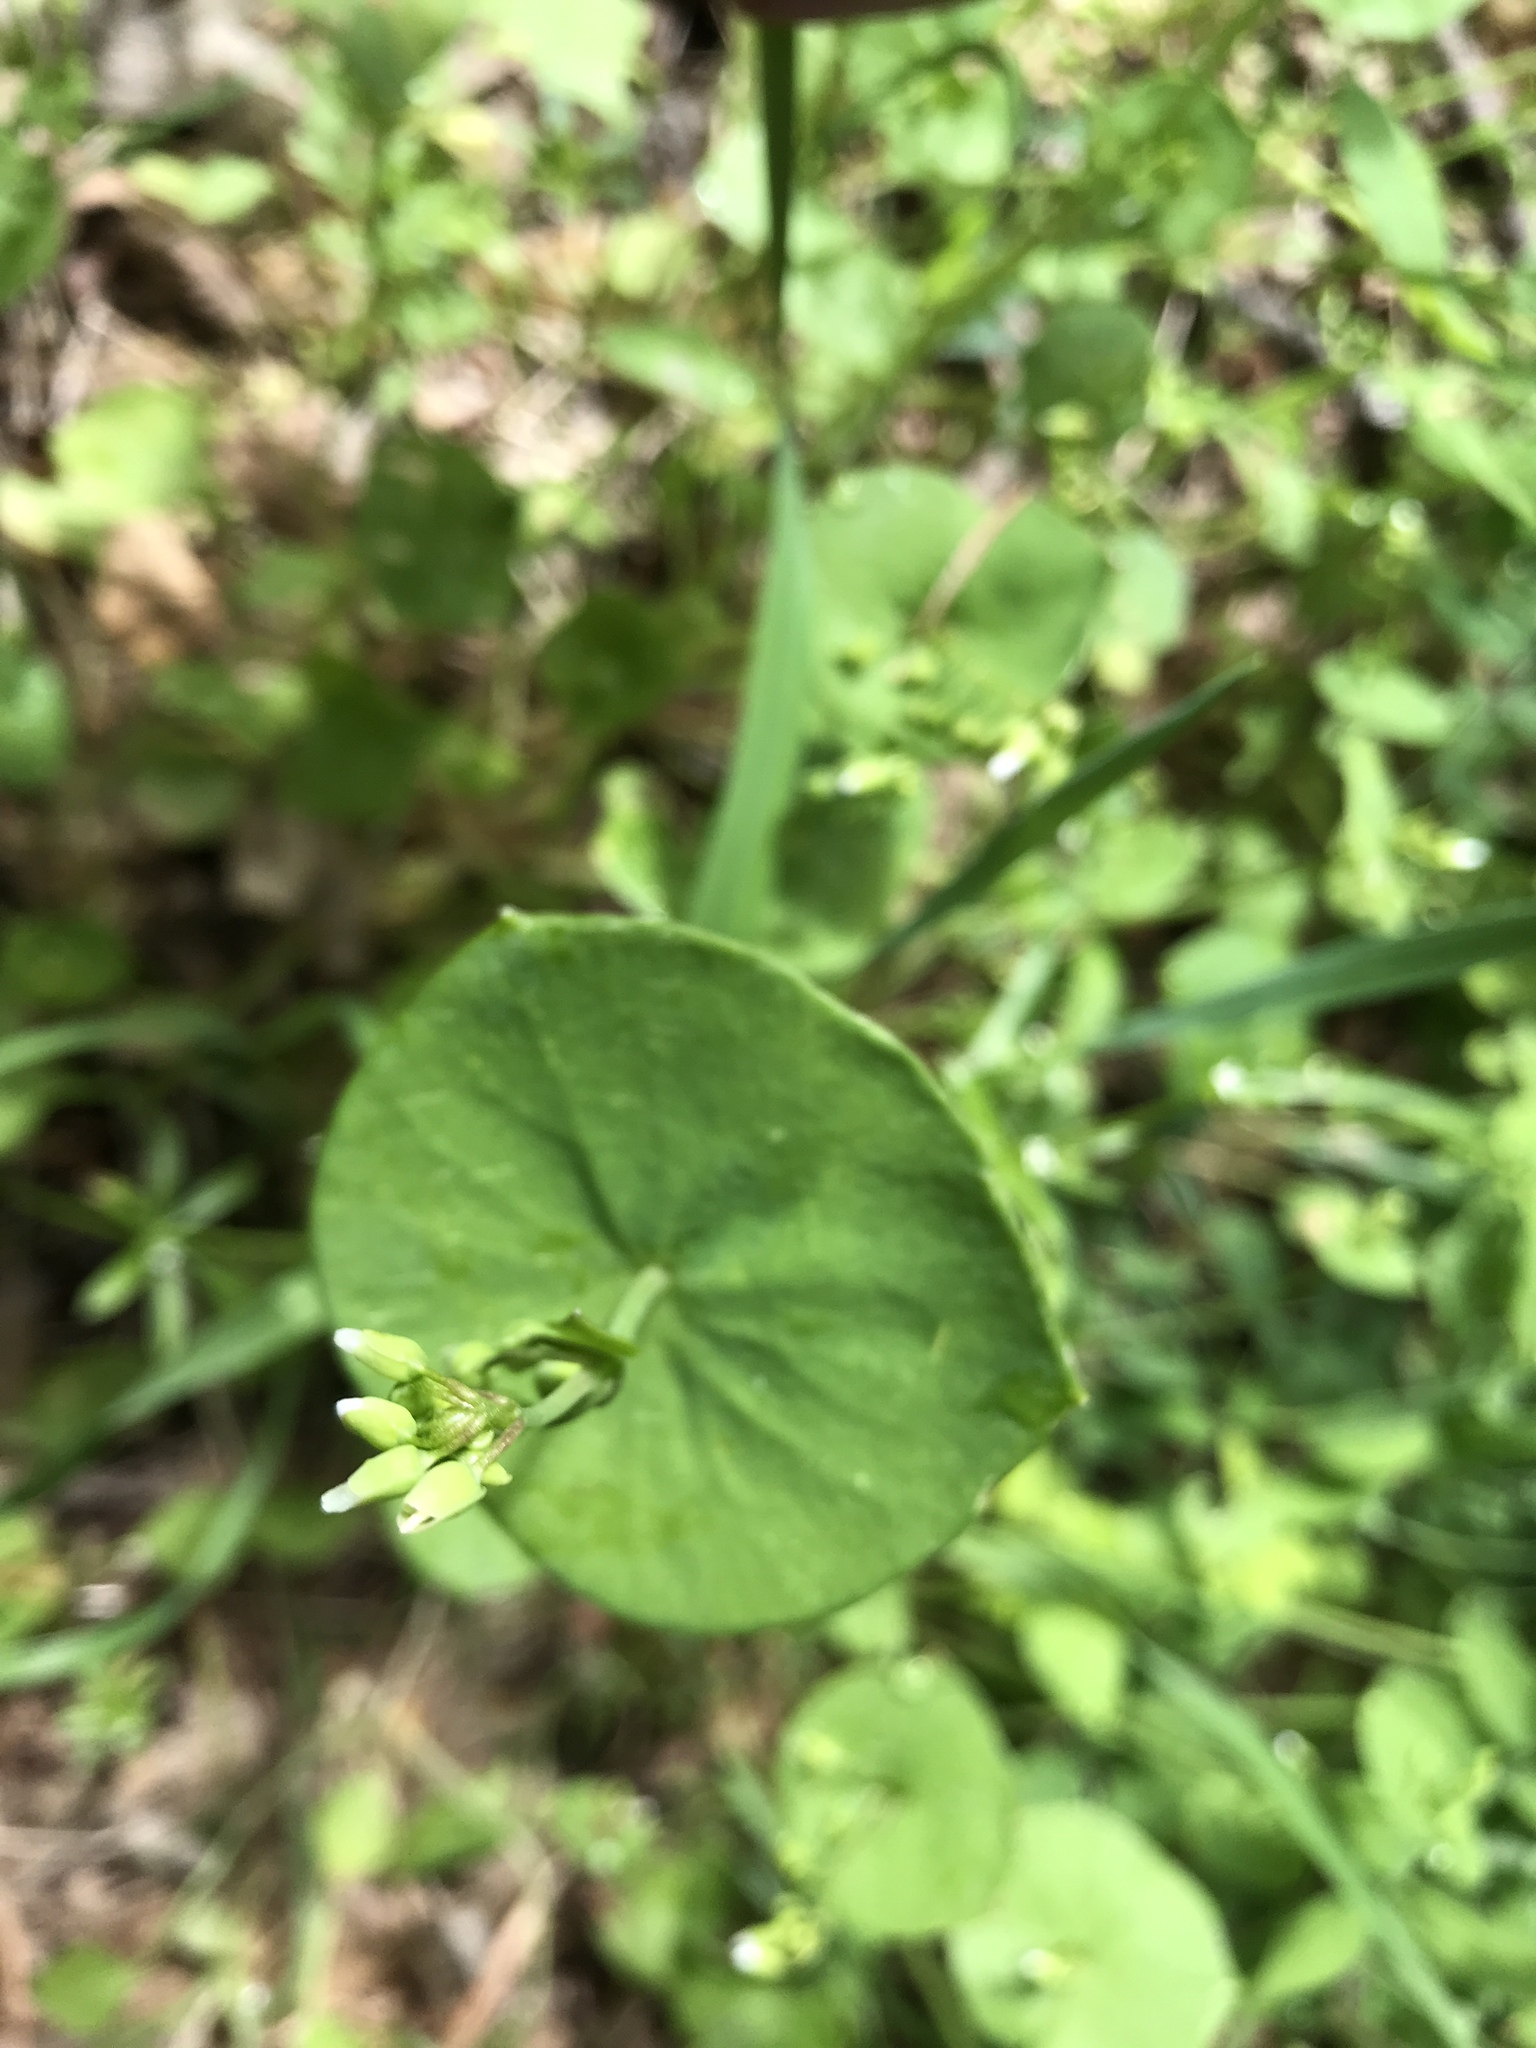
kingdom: Plantae
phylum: Tracheophyta
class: Magnoliopsida
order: Caryophyllales
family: Montiaceae
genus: Claytonia
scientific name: Claytonia perfoliata
